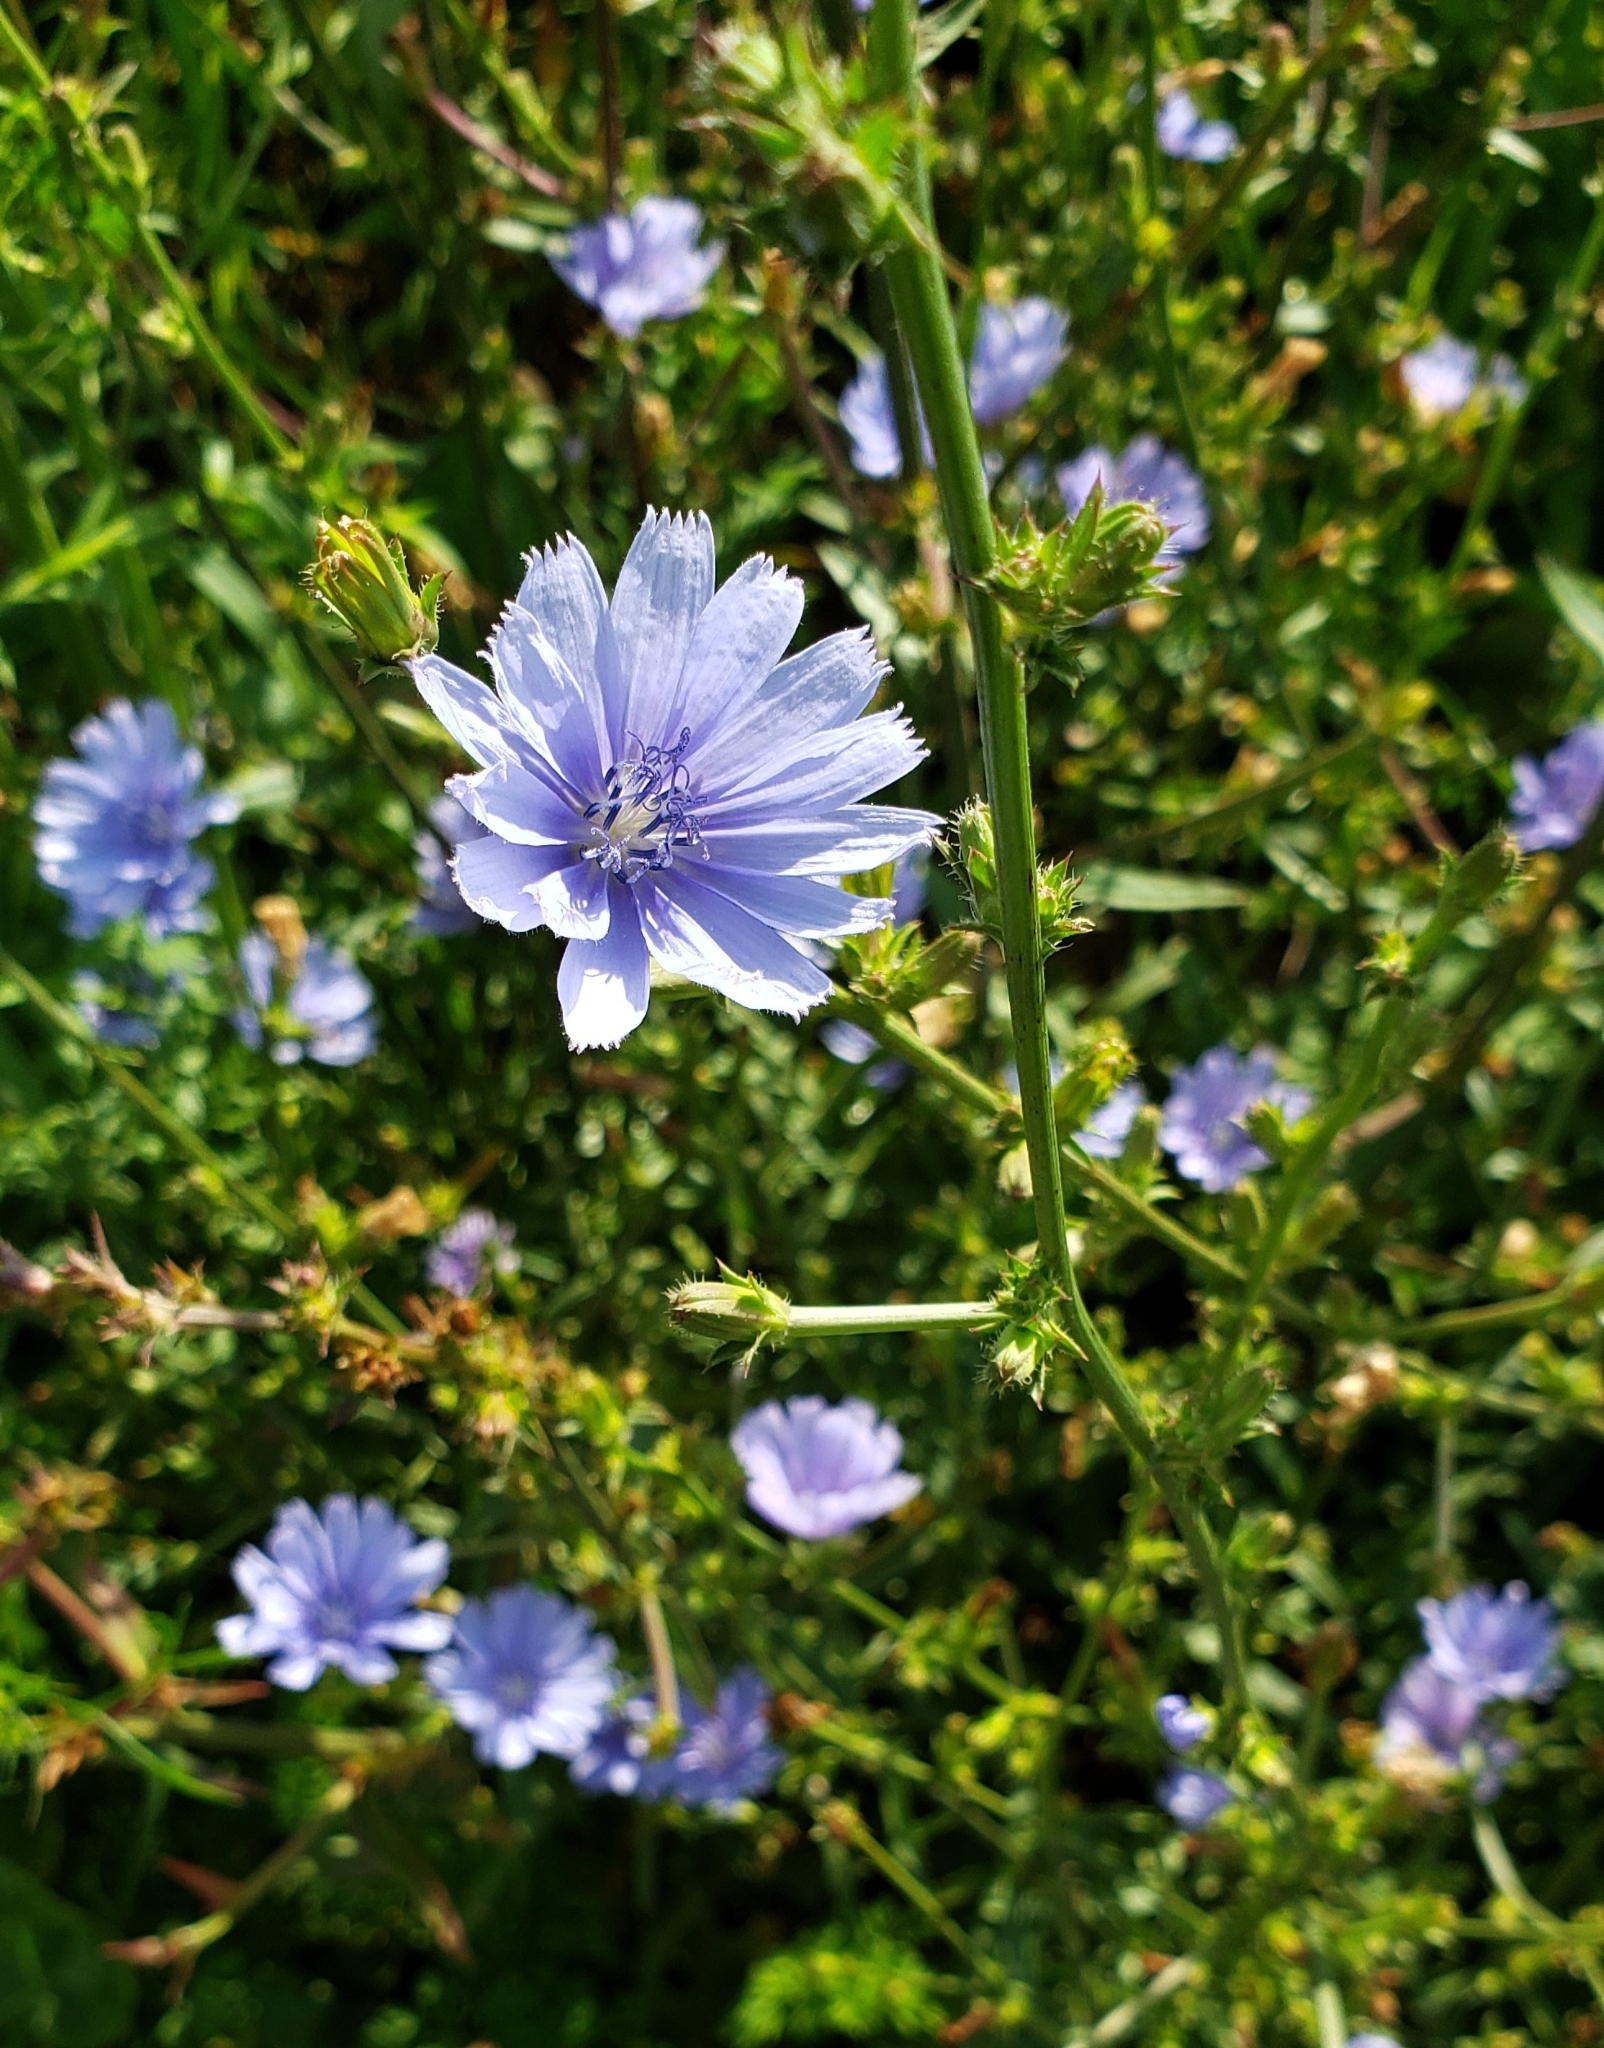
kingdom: Plantae
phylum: Tracheophyta
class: Magnoliopsida
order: Asterales
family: Asteraceae
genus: Cichorium
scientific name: Cichorium intybus
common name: Chicory
